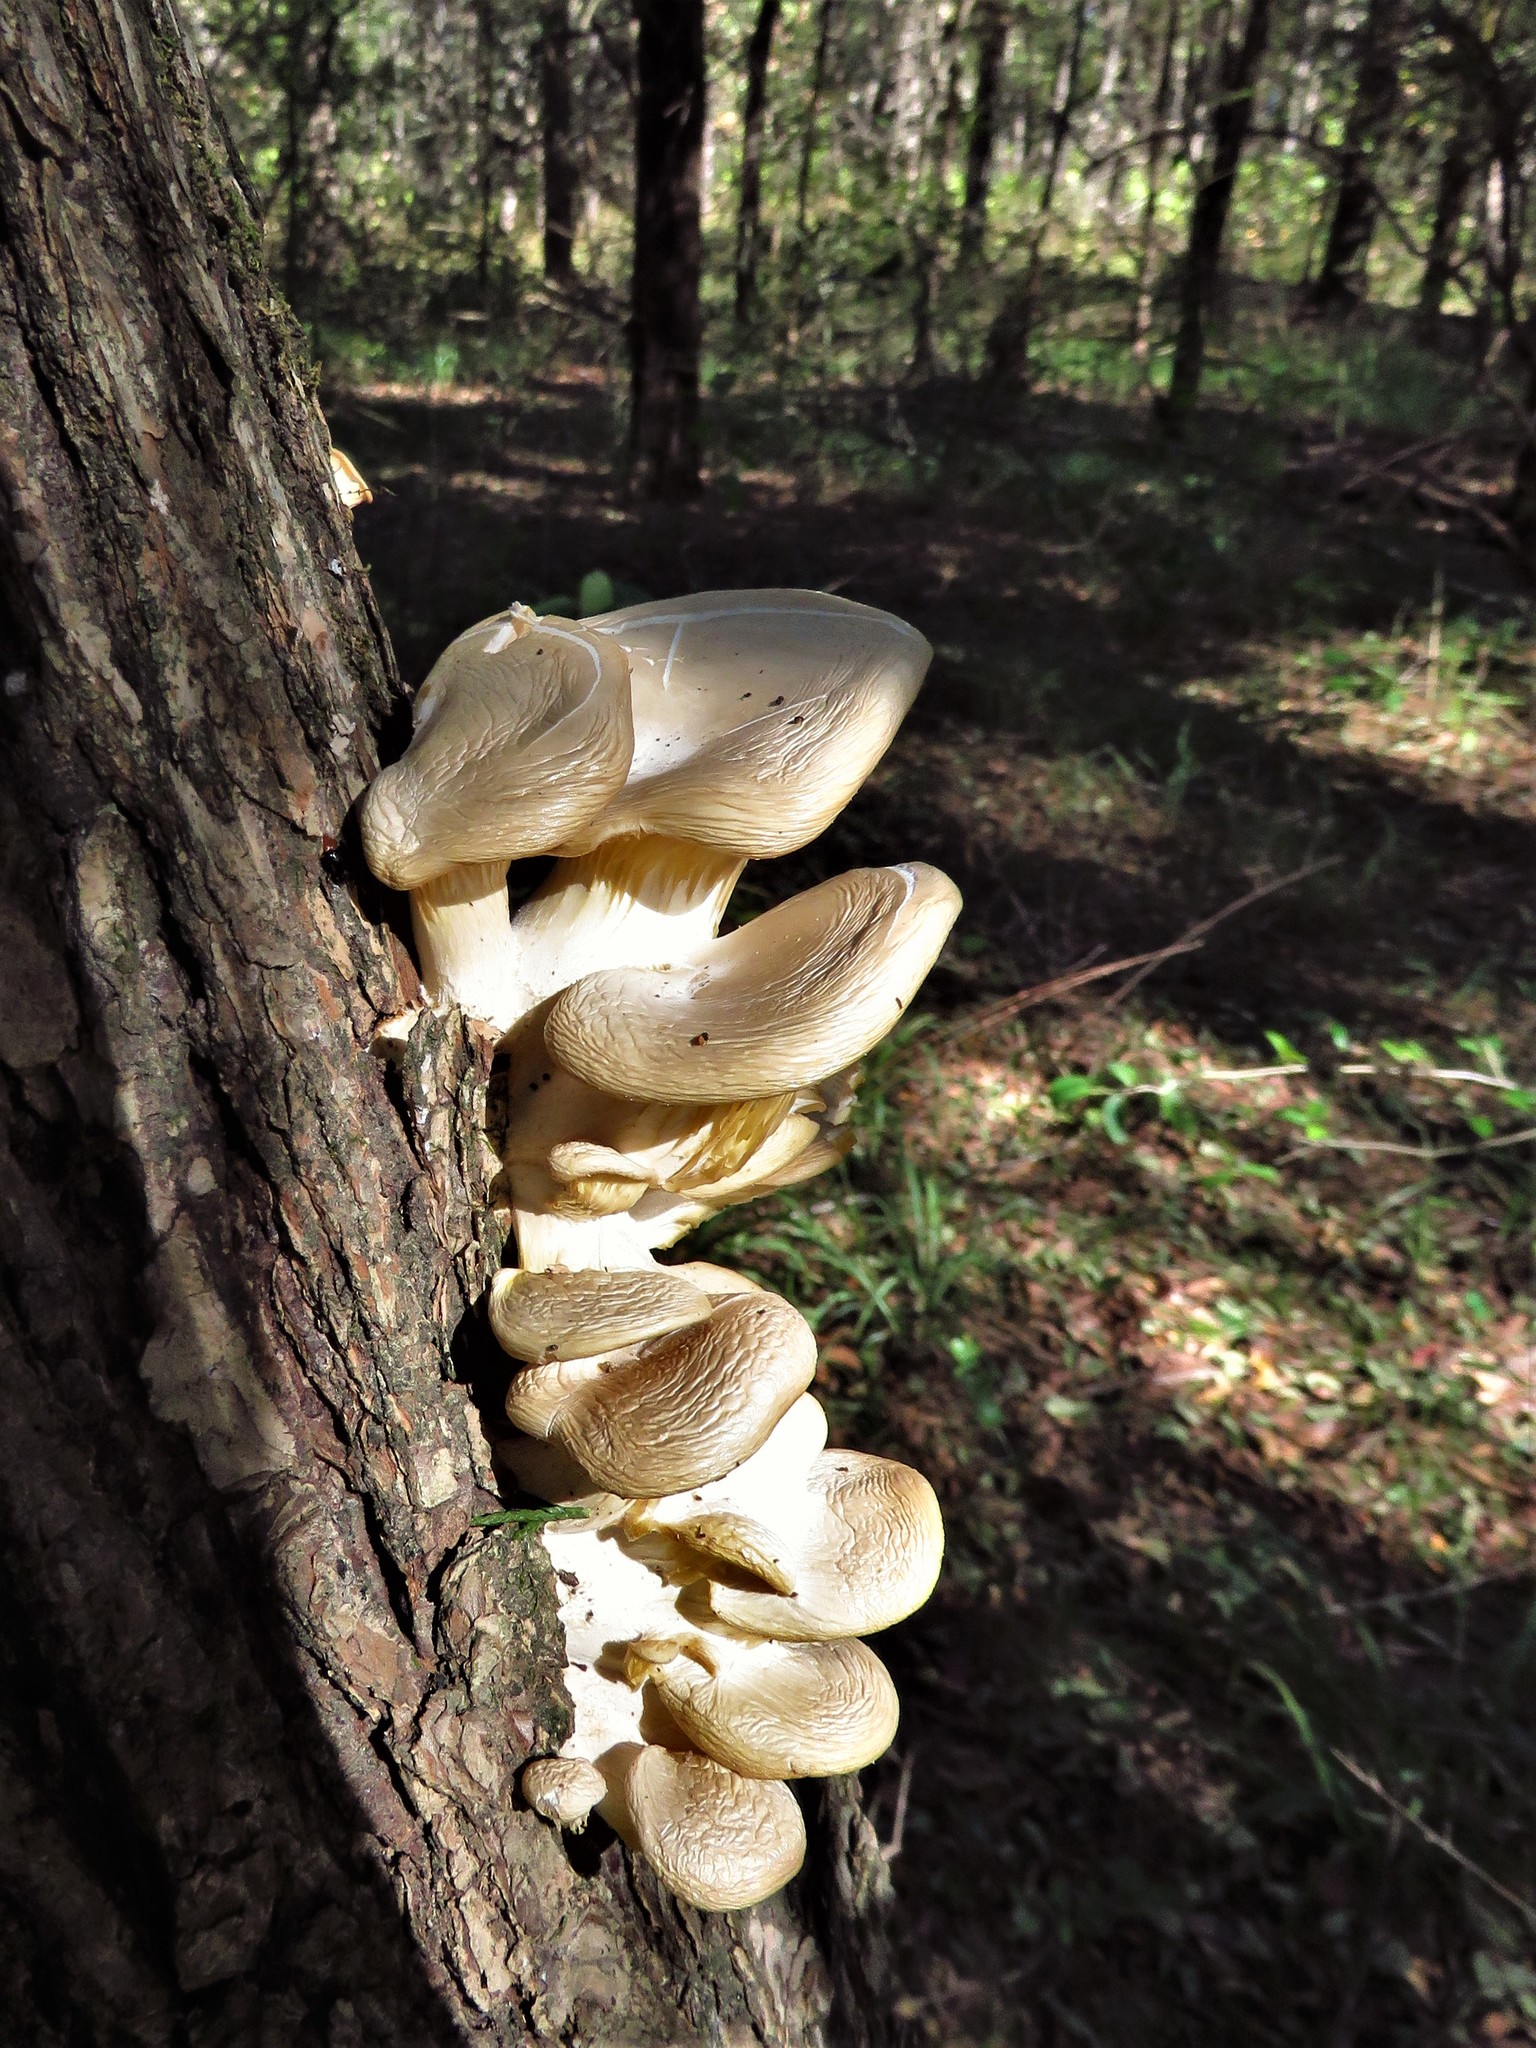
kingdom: Fungi
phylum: Basidiomycota
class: Agaricomycetes
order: Agaricales
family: Pleurotaceae
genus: Pleurotus
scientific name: Pleurotus ostreatus
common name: Oyster mushroom
